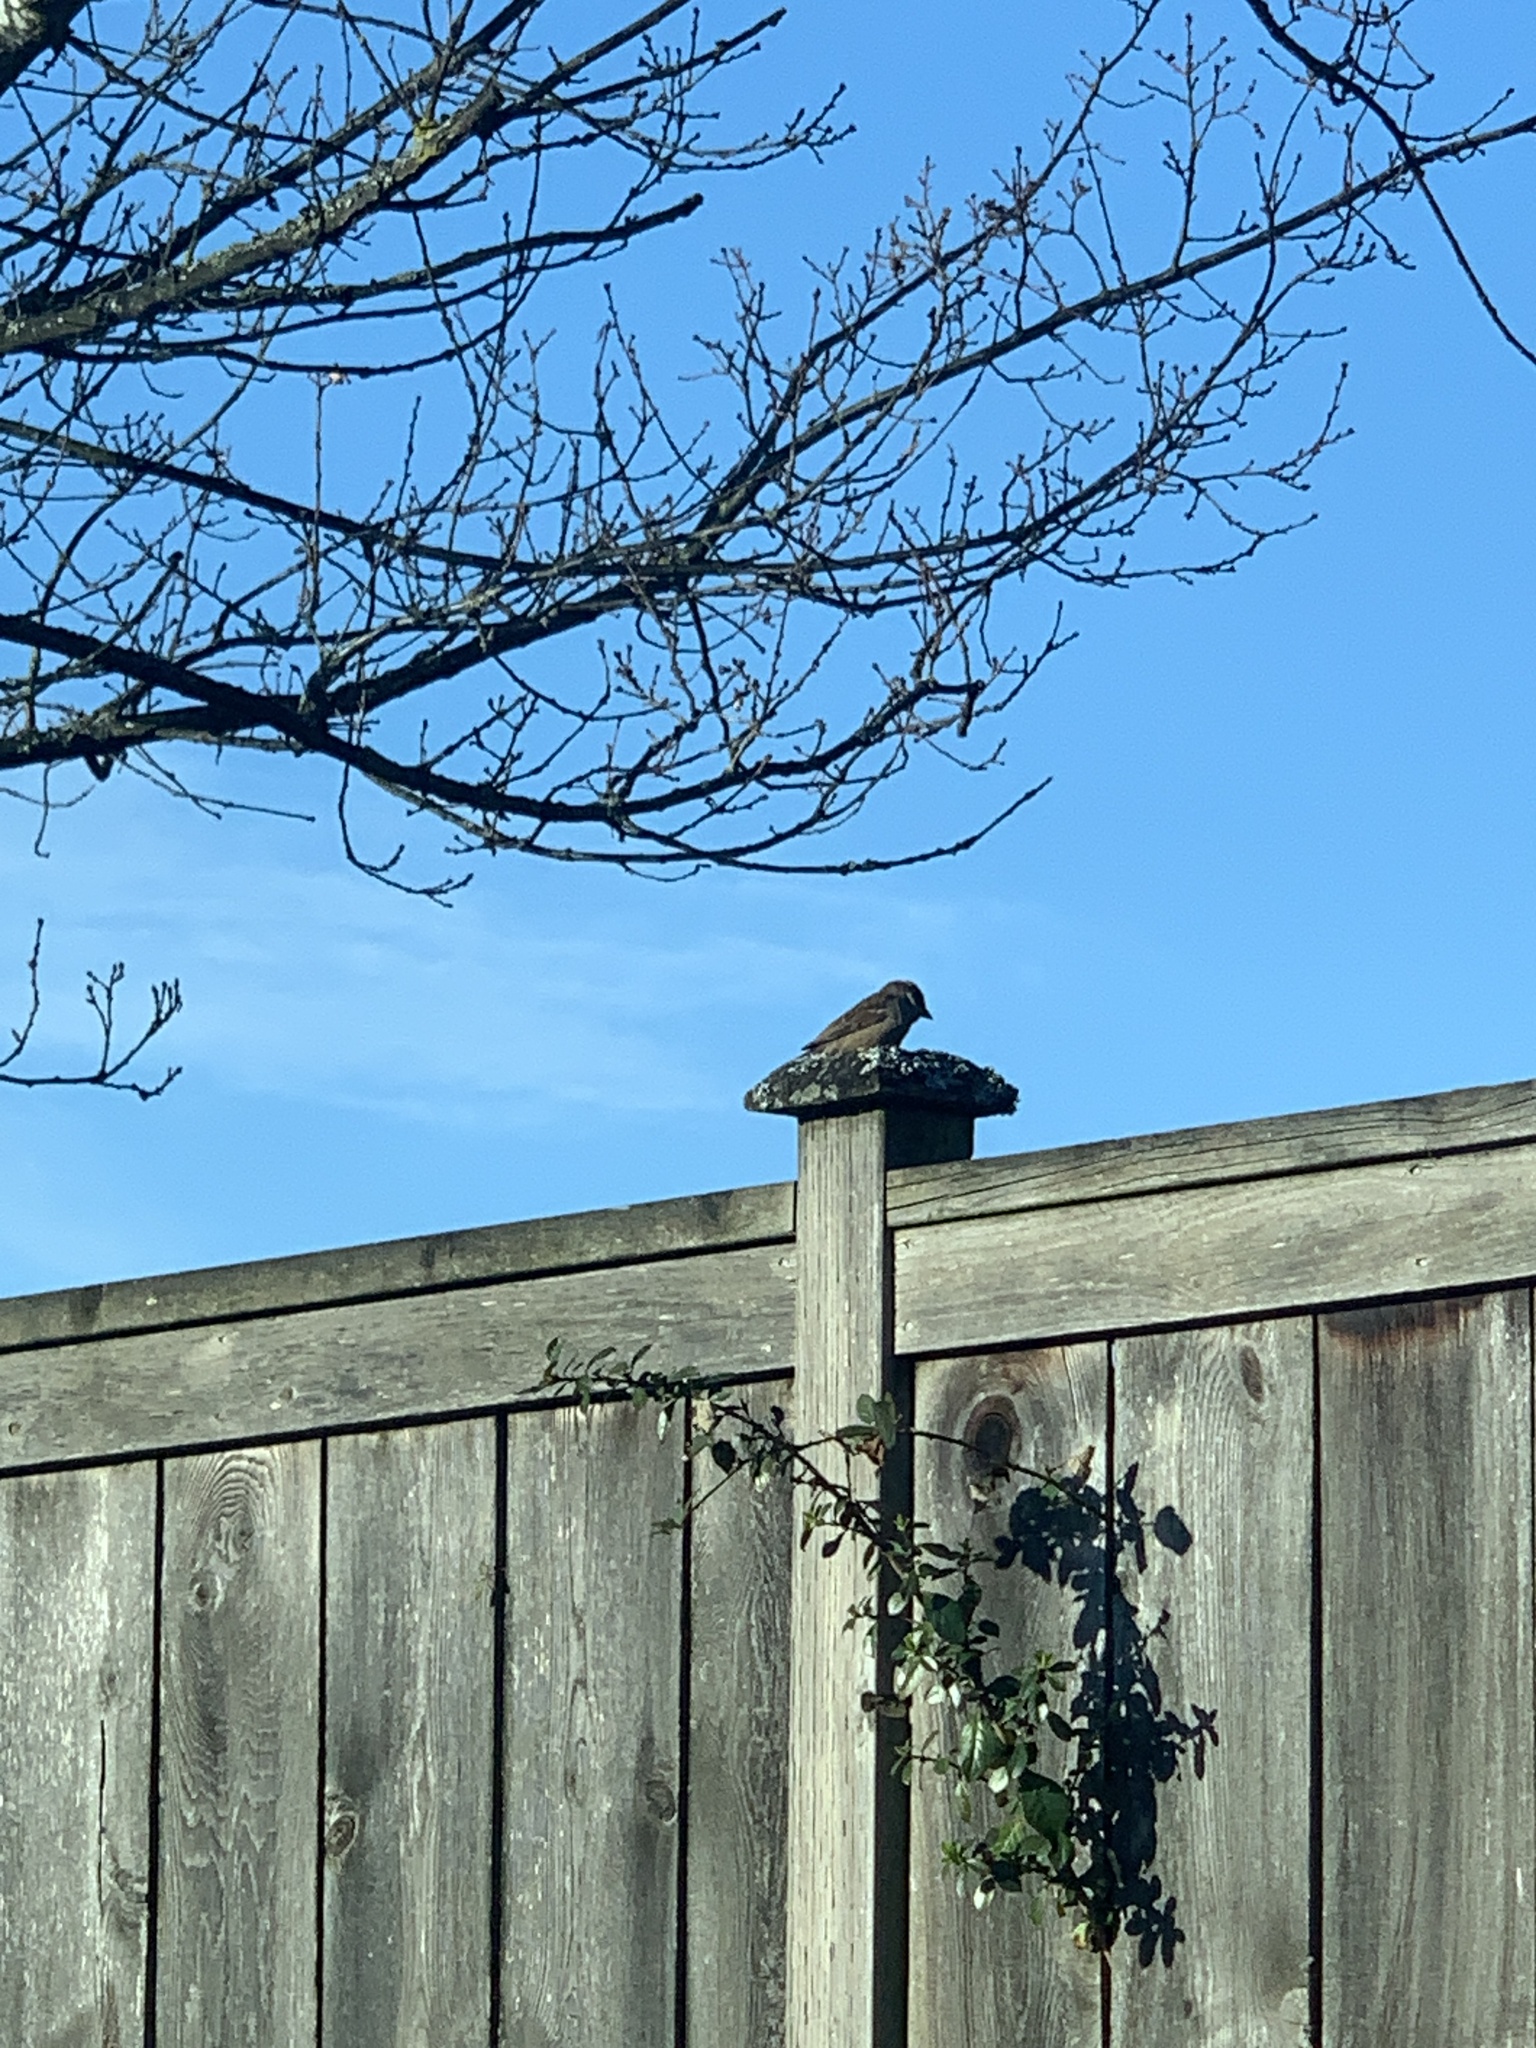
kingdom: Animalia
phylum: Chordata
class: Aves
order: Passeriformes
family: Passeridae
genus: Passer
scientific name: Passer domesticus
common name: House sparrow
